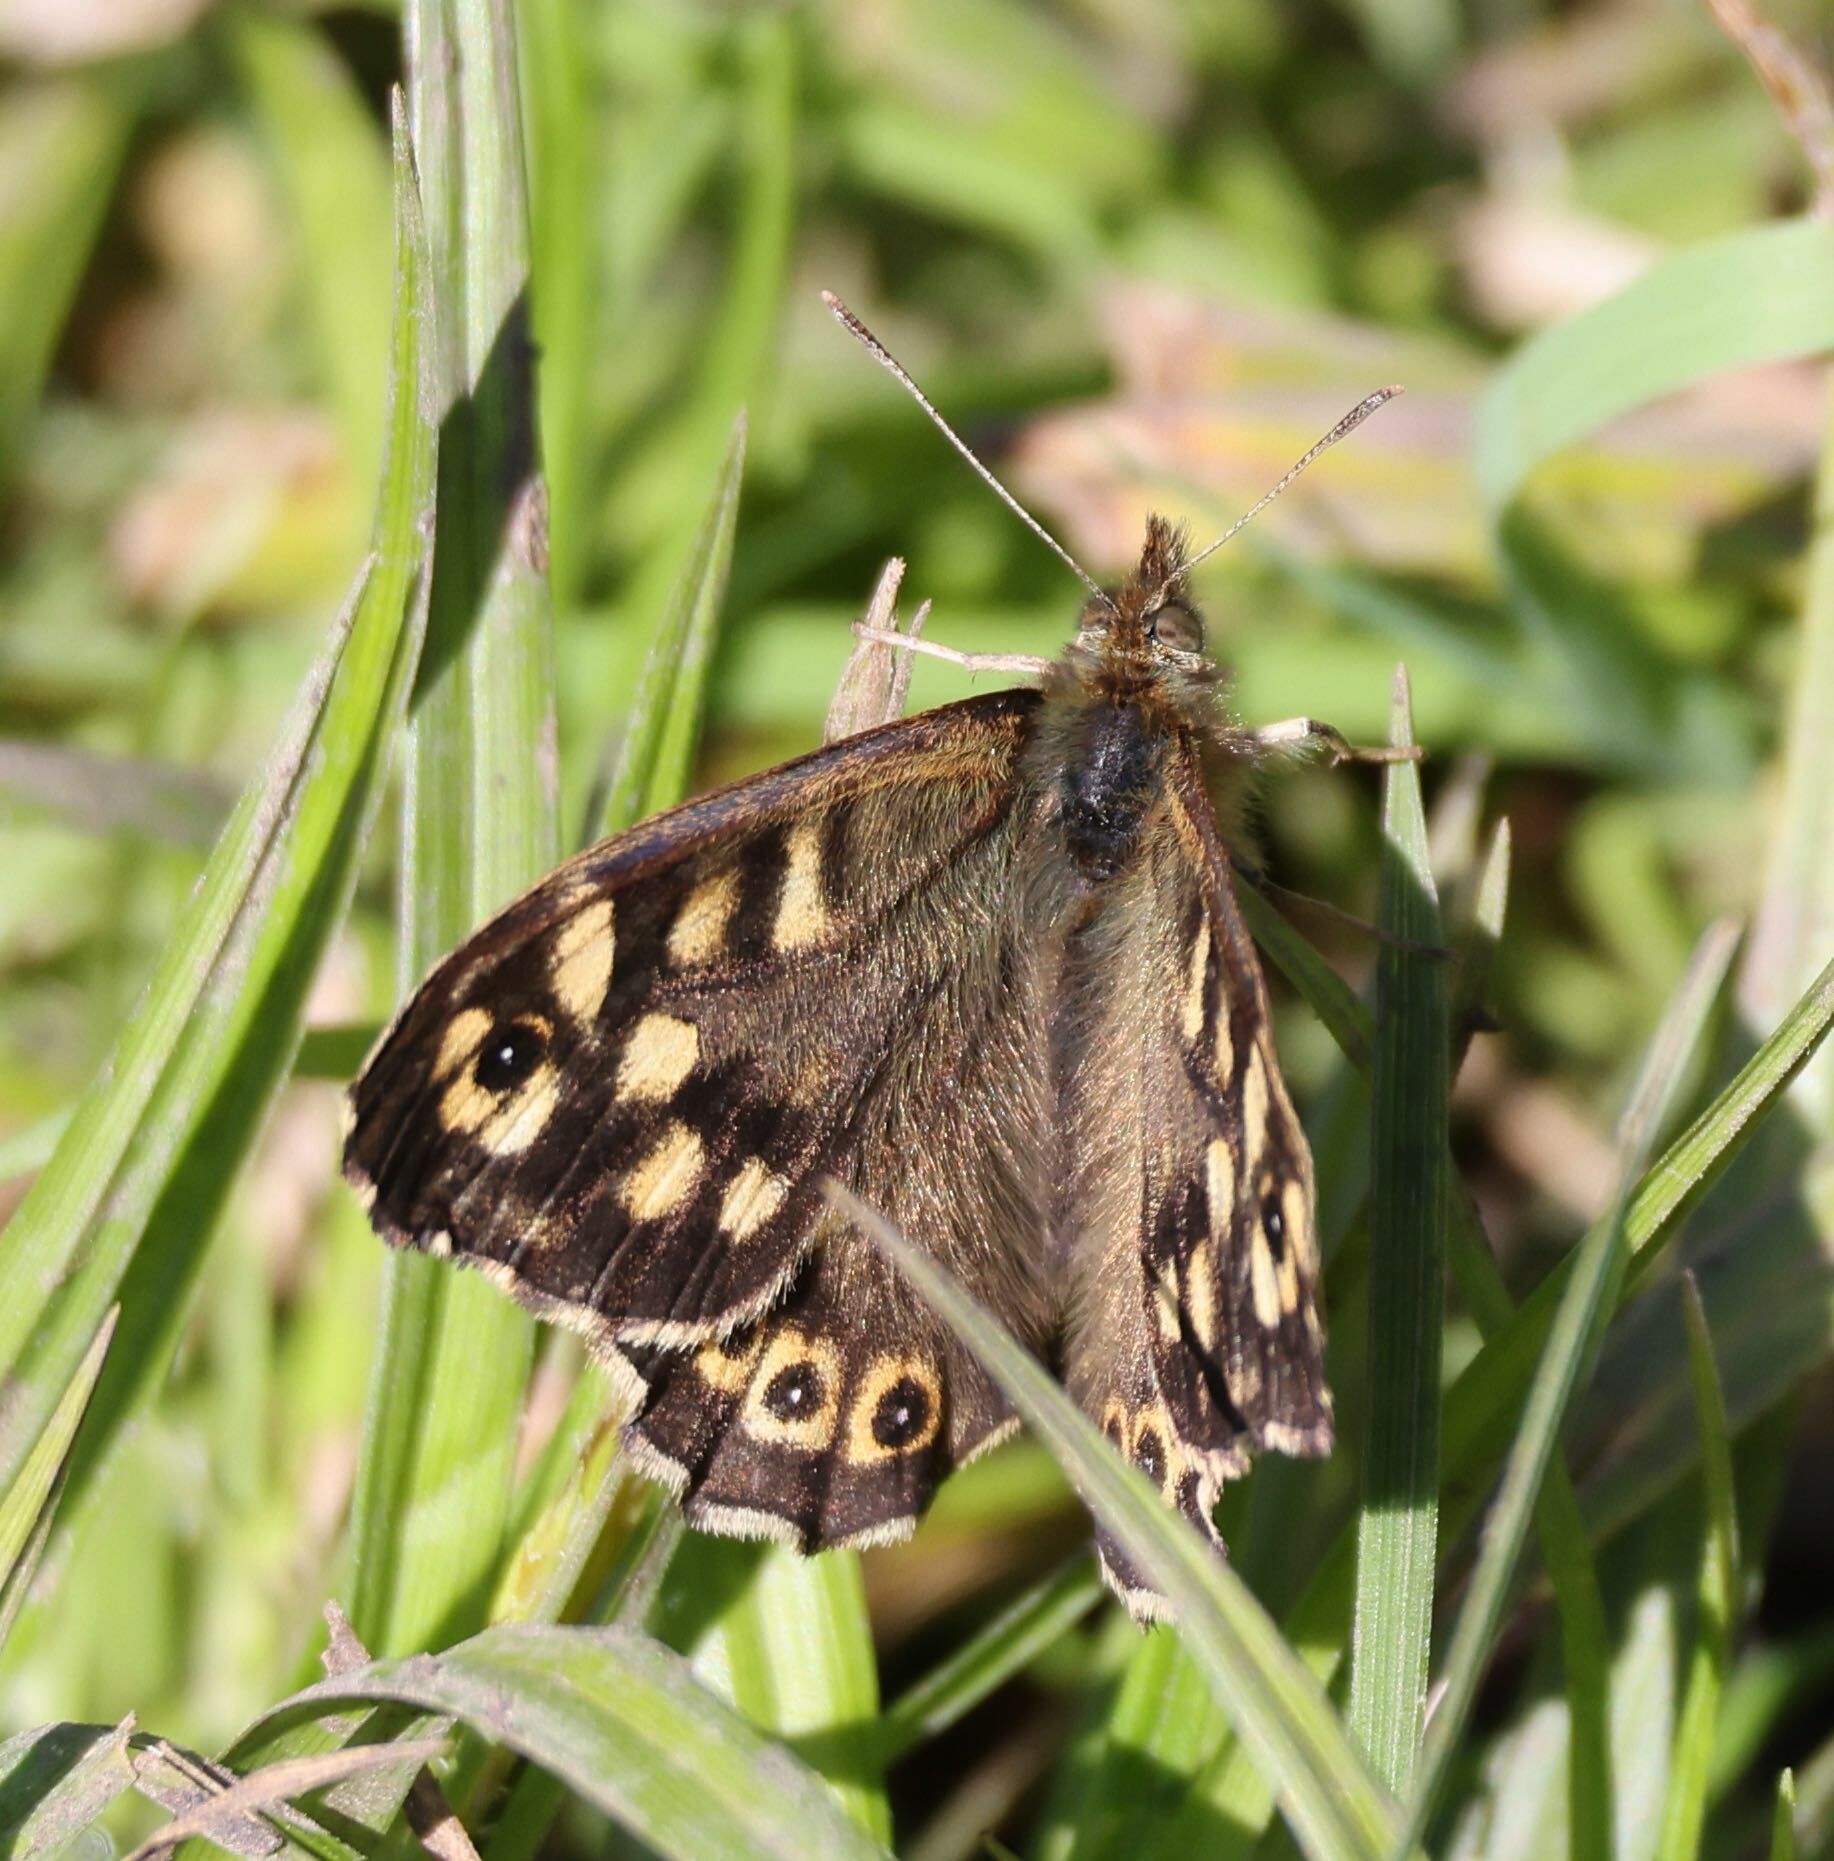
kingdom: Animalia
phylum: Arthropoda
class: Insecta
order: Lepidoptera
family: Nymphalidae
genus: Pararge
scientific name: Pararge aegeria
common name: Speckled wood
